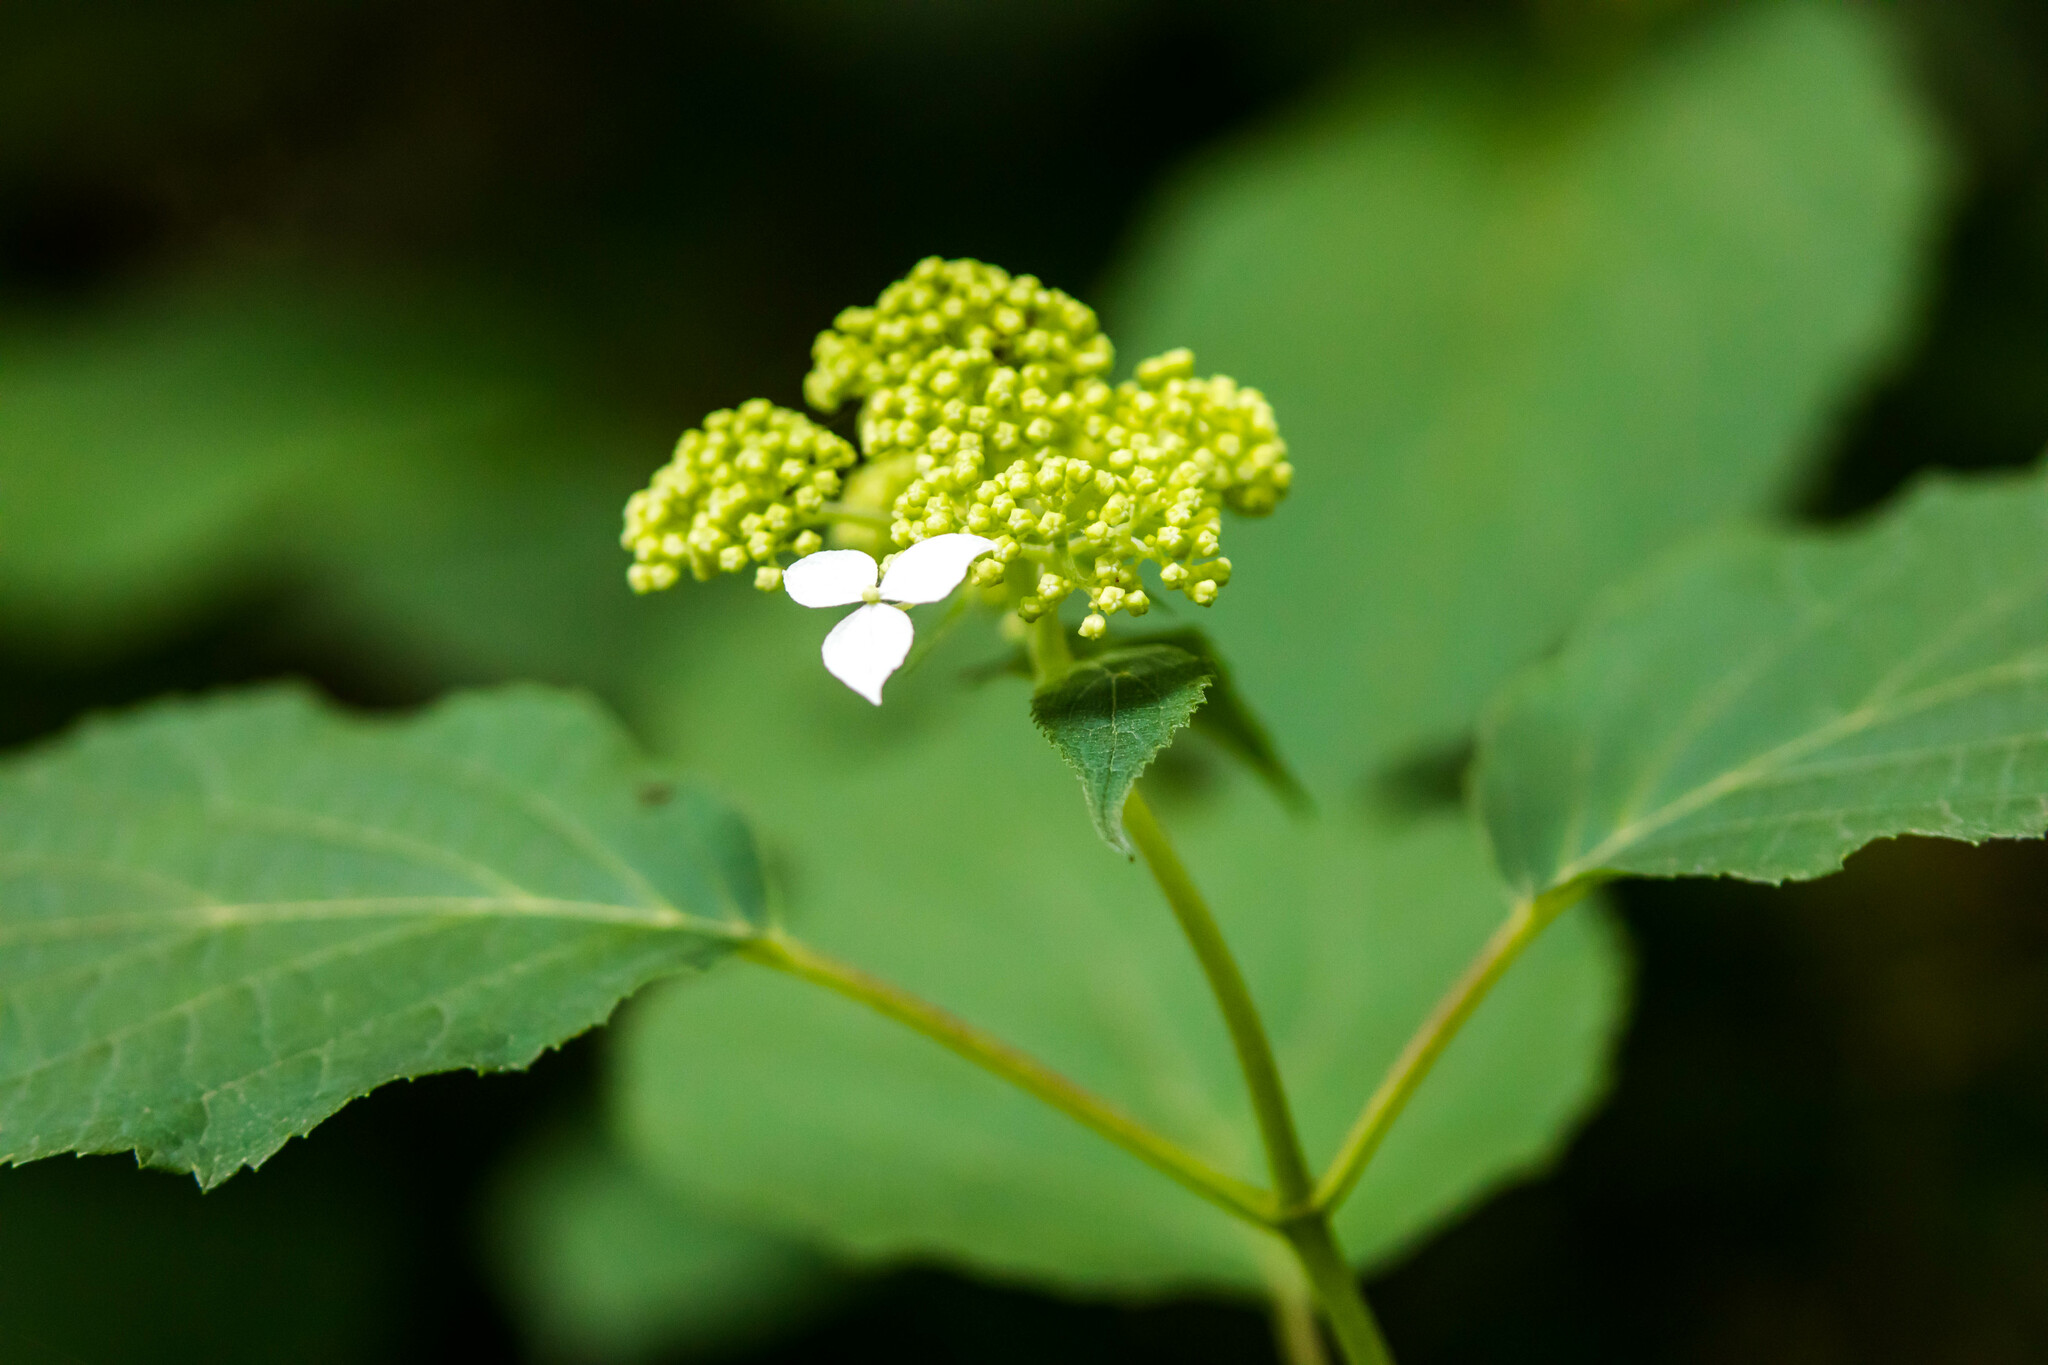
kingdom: Plantae
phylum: Tracheophyta
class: Magnoliopsida
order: Cornales
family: Hydrangeaceae
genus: Hydrangea
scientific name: Hydrangea arborescens
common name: Sevenbark
